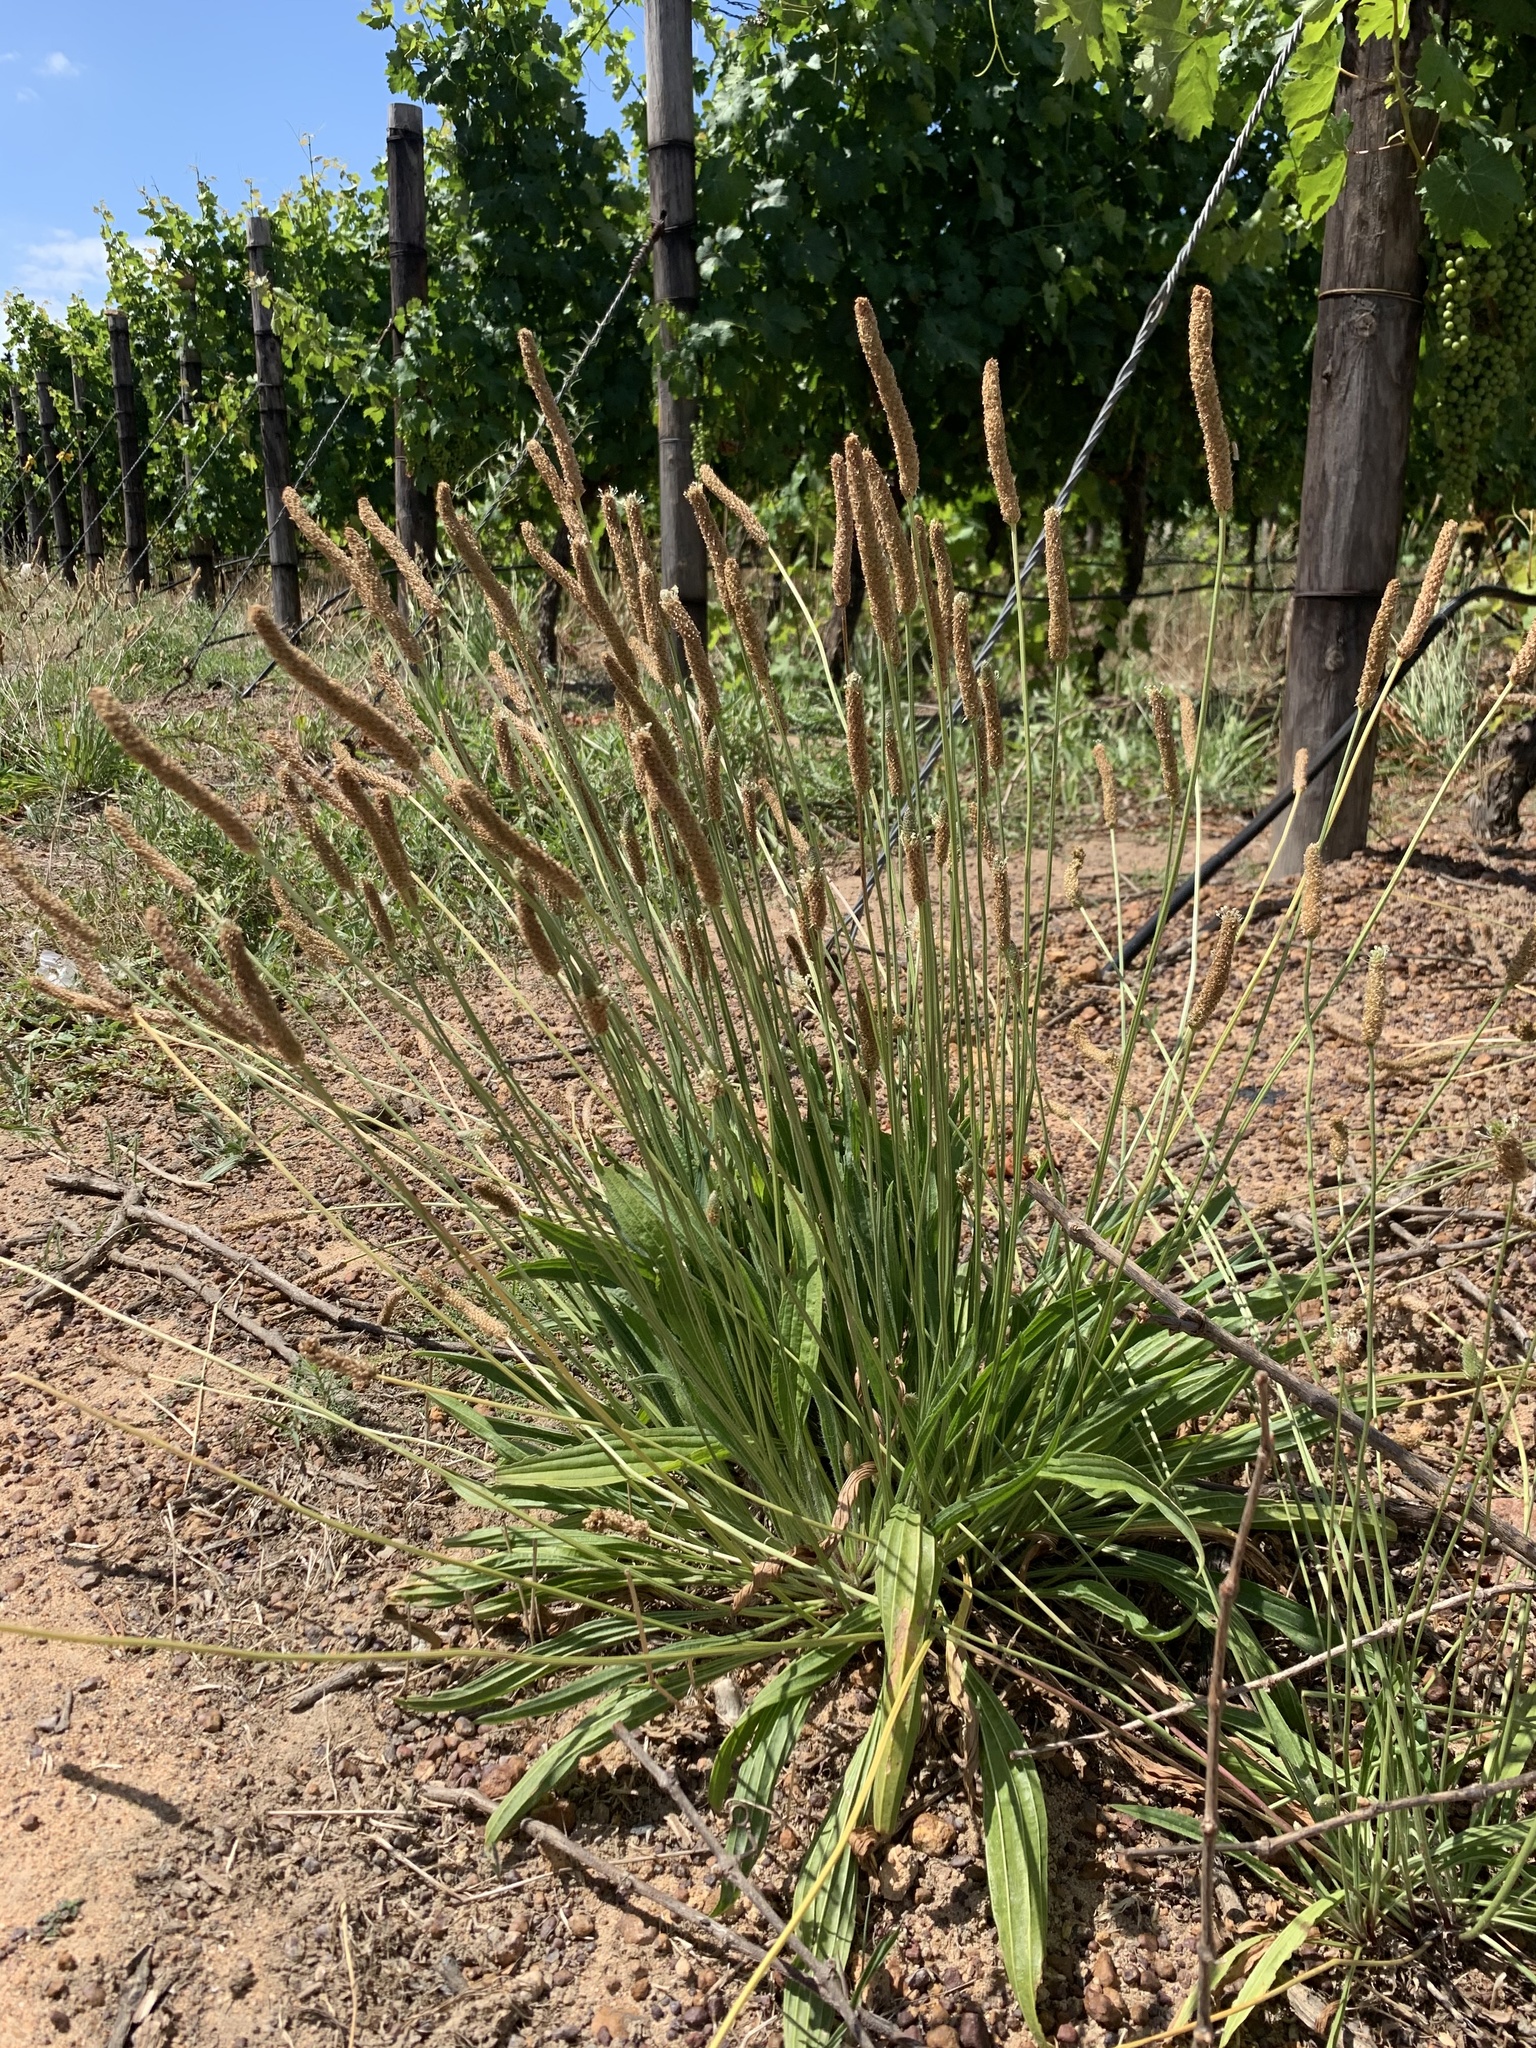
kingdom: Plantae
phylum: Tracheophyta
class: Magnoliopsida
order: Lamiales
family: Plantaginaceae
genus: Plantago
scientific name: Plantago lanceolata
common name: Ribwort plantain
